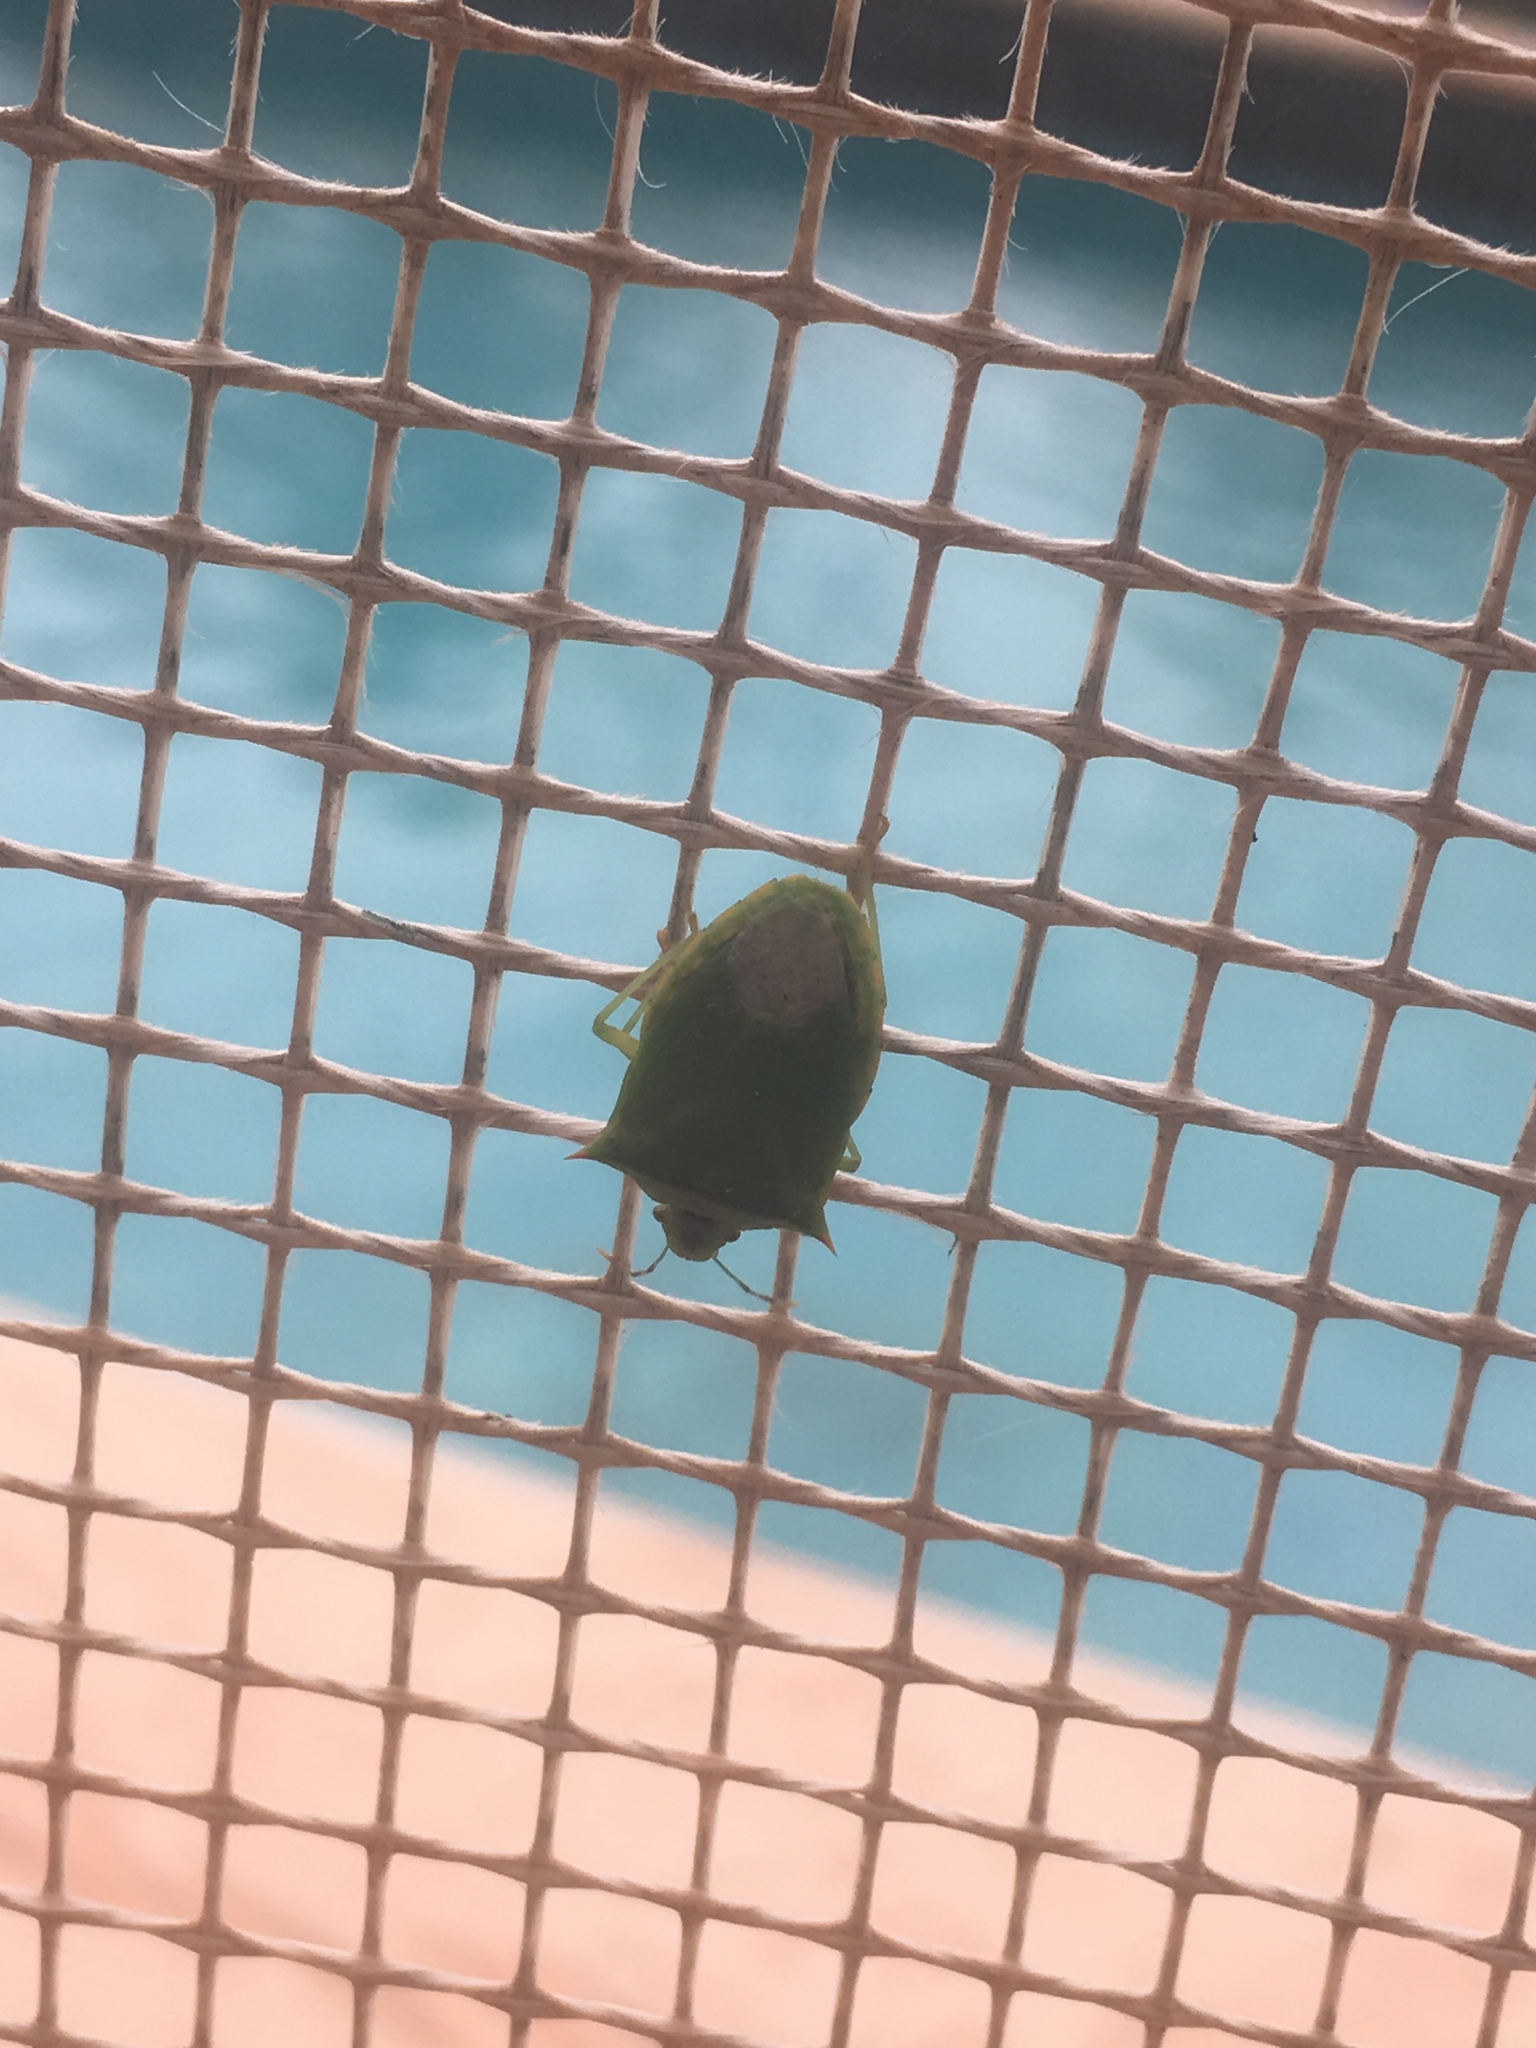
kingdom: Animalia
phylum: Arthropoda
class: Insecta
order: Hemiptera
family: Pentatomidae
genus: Thyanta
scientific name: Thyanta perditor
